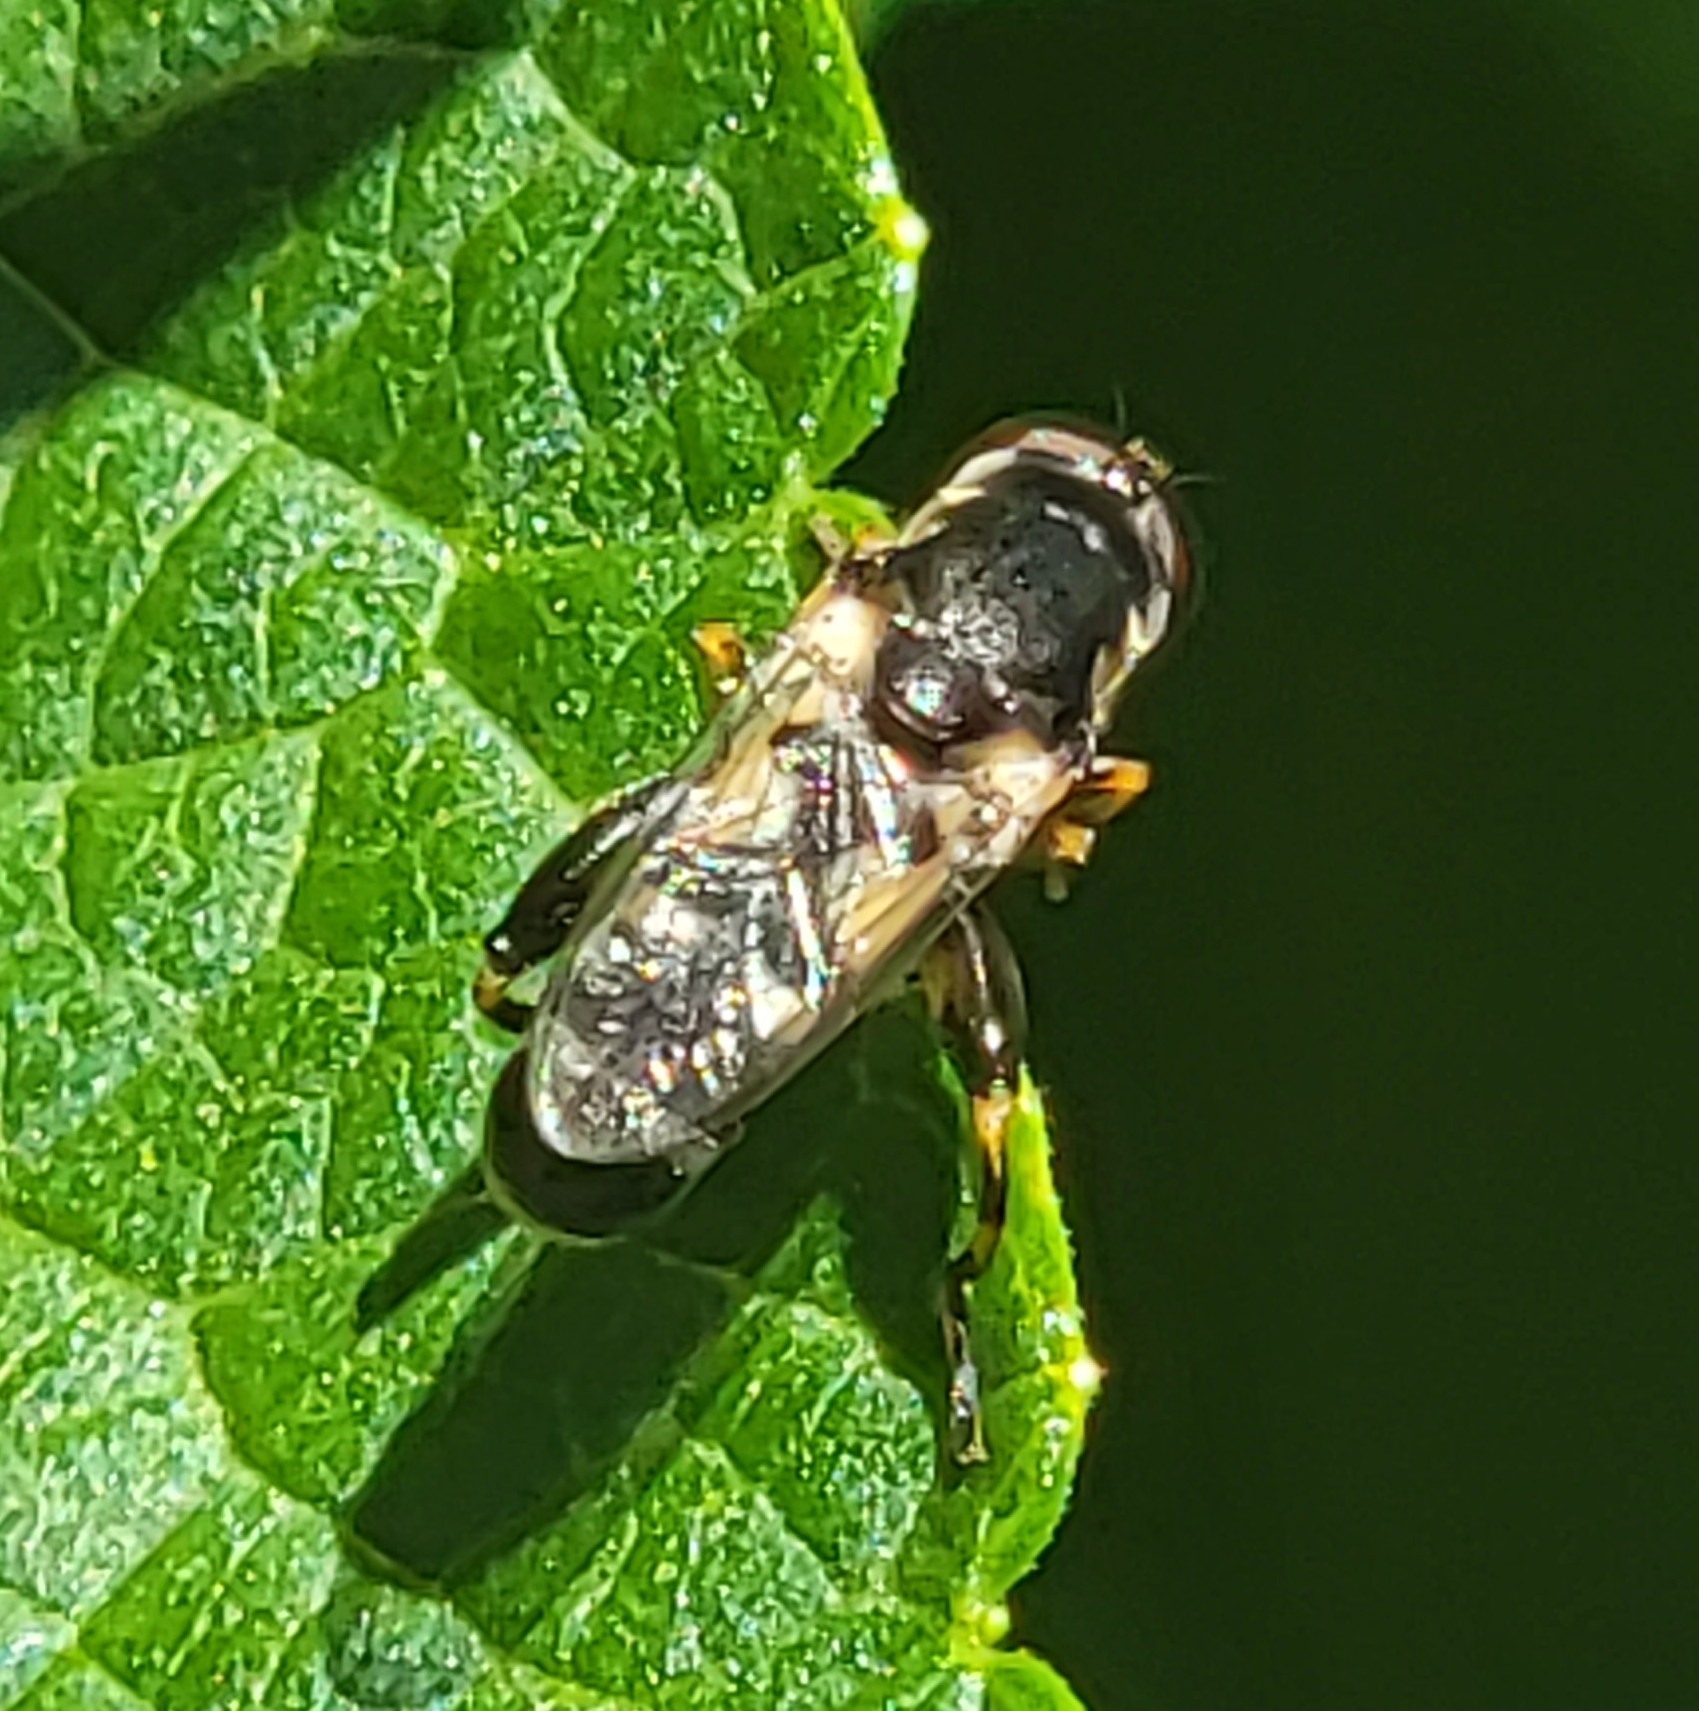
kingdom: Animalia
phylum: Arthropoda
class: Insecta
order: Diptera
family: Syrphidae
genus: Syritta
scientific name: Syritta pipiens
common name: Hover fly
